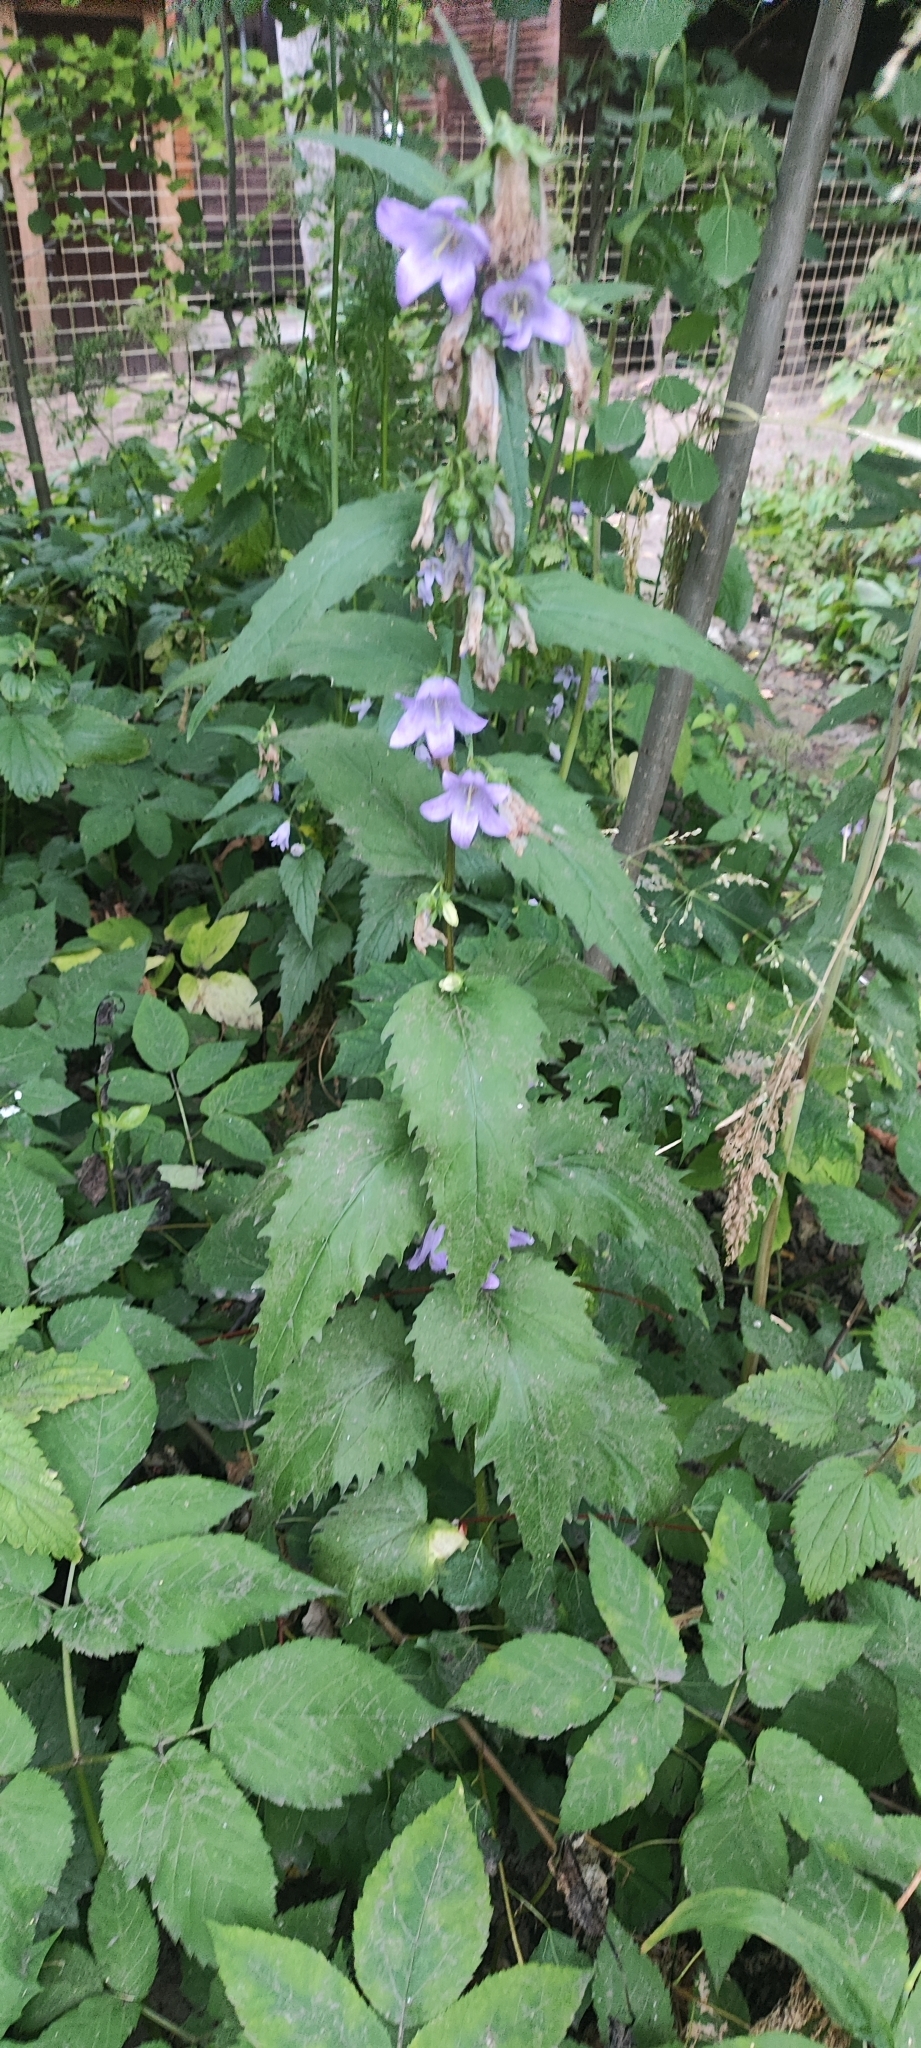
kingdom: Plantae
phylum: Tracheophyta
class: Magnoliopsida
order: Asterales
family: Campanulaceae
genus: Campanula
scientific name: Campanula trachelium
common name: Nettle-leaved bellflower
